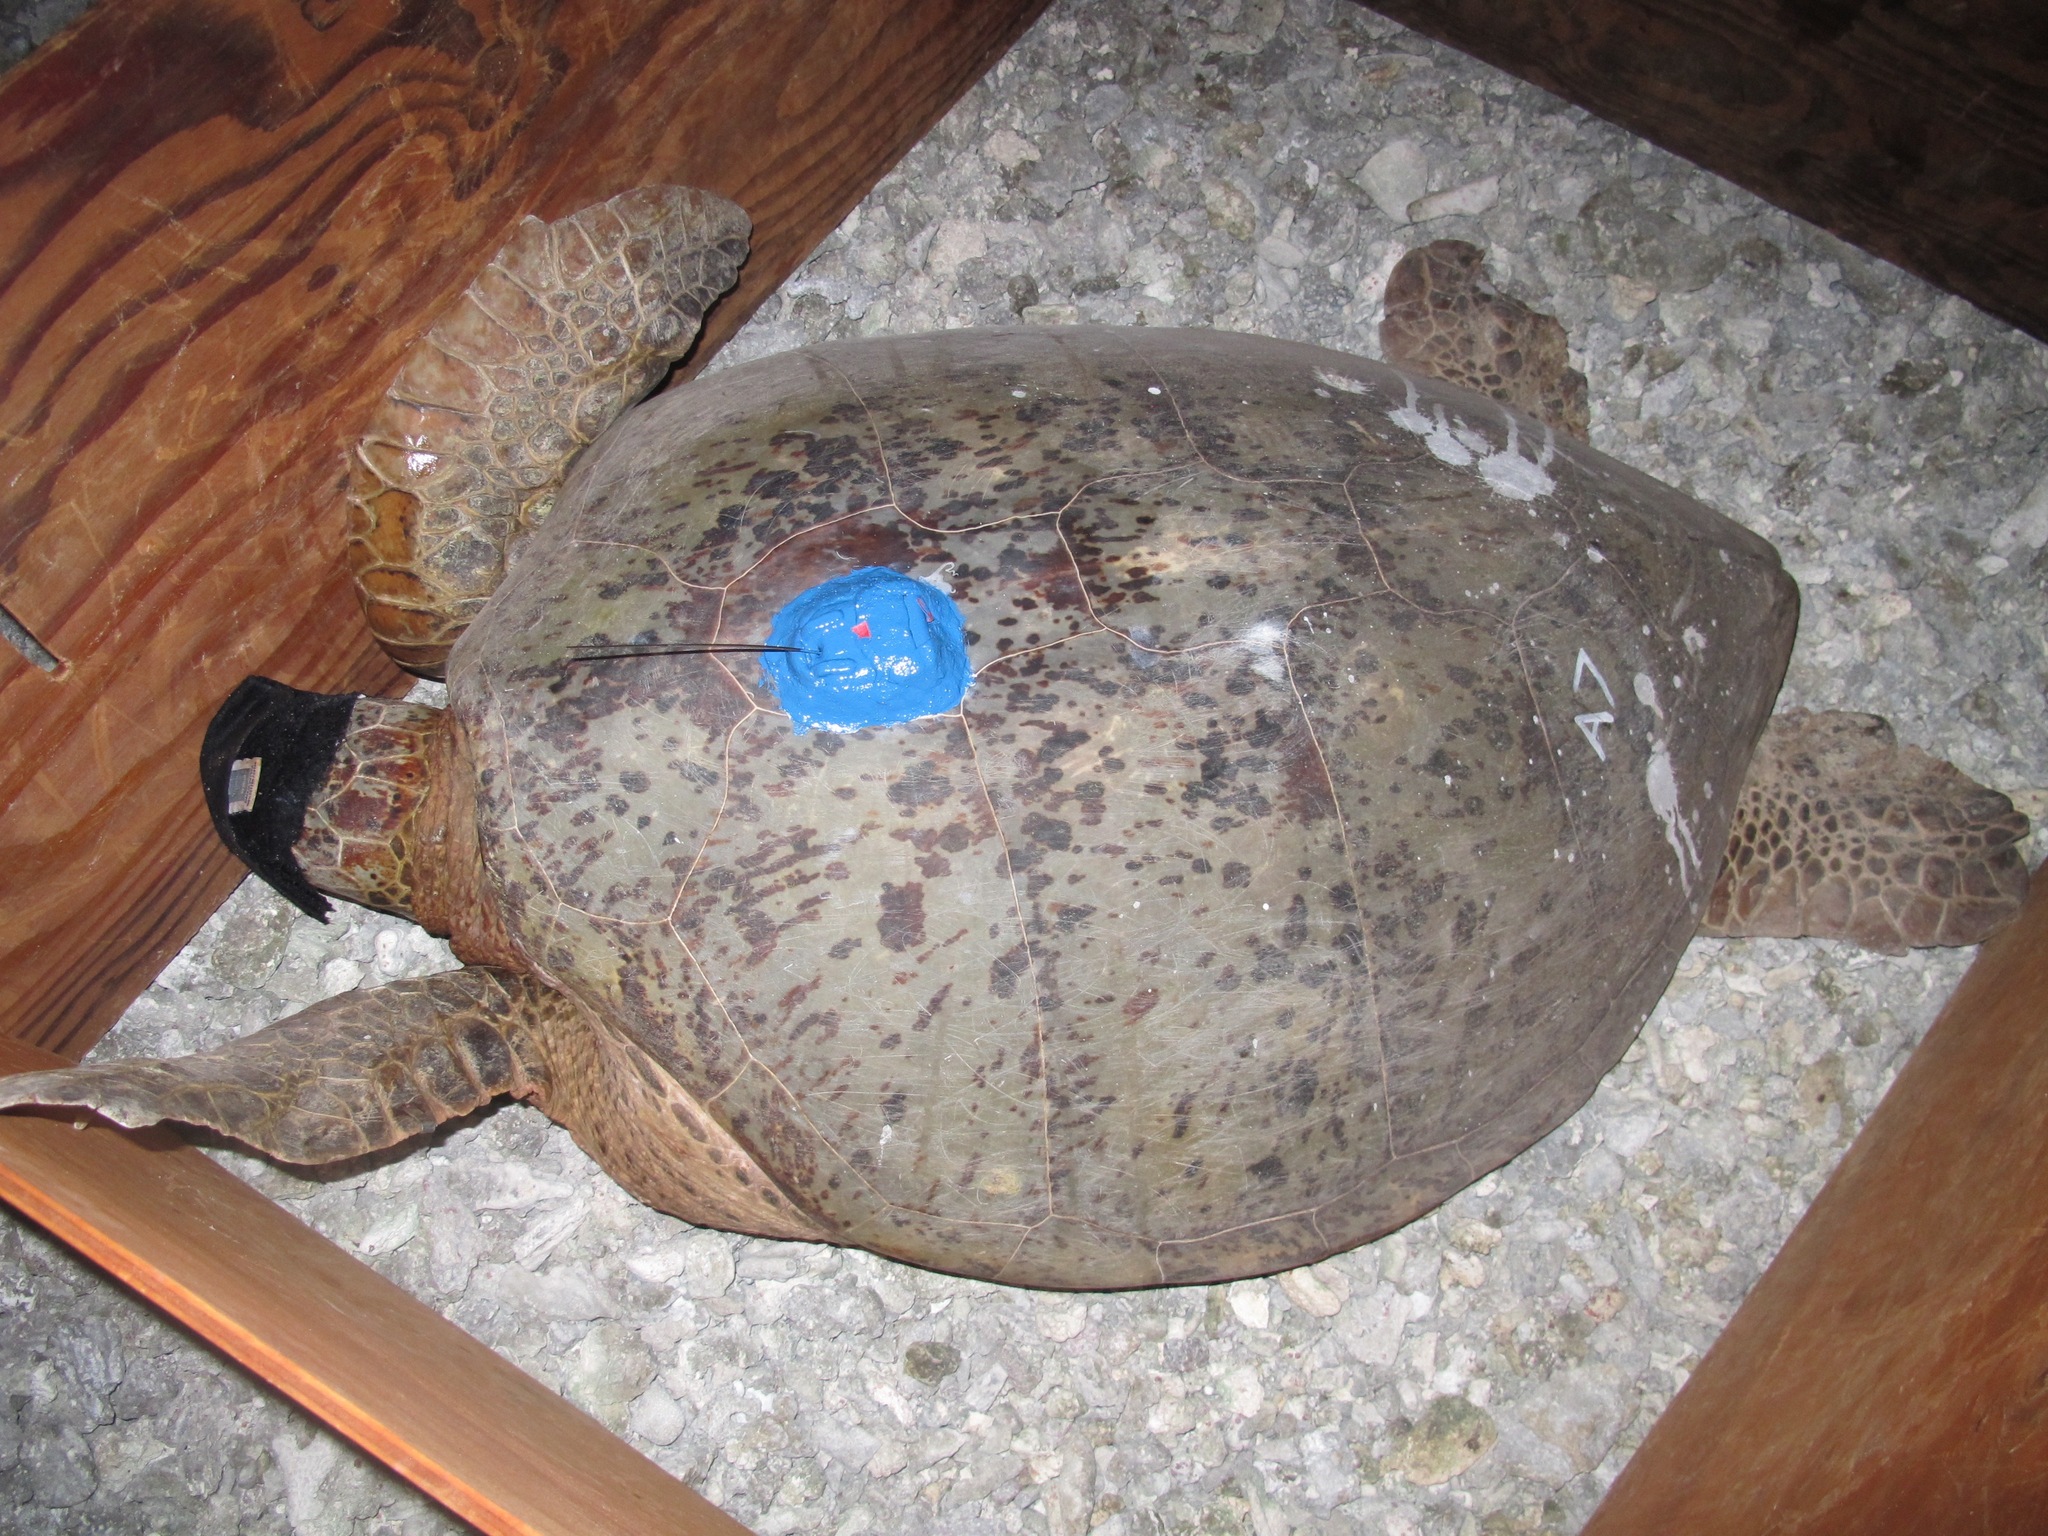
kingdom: Animalia
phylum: Chordata
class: Testudines
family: Cheloniidae
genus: Chelonia
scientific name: Chelonia mydas
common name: Green turtle
